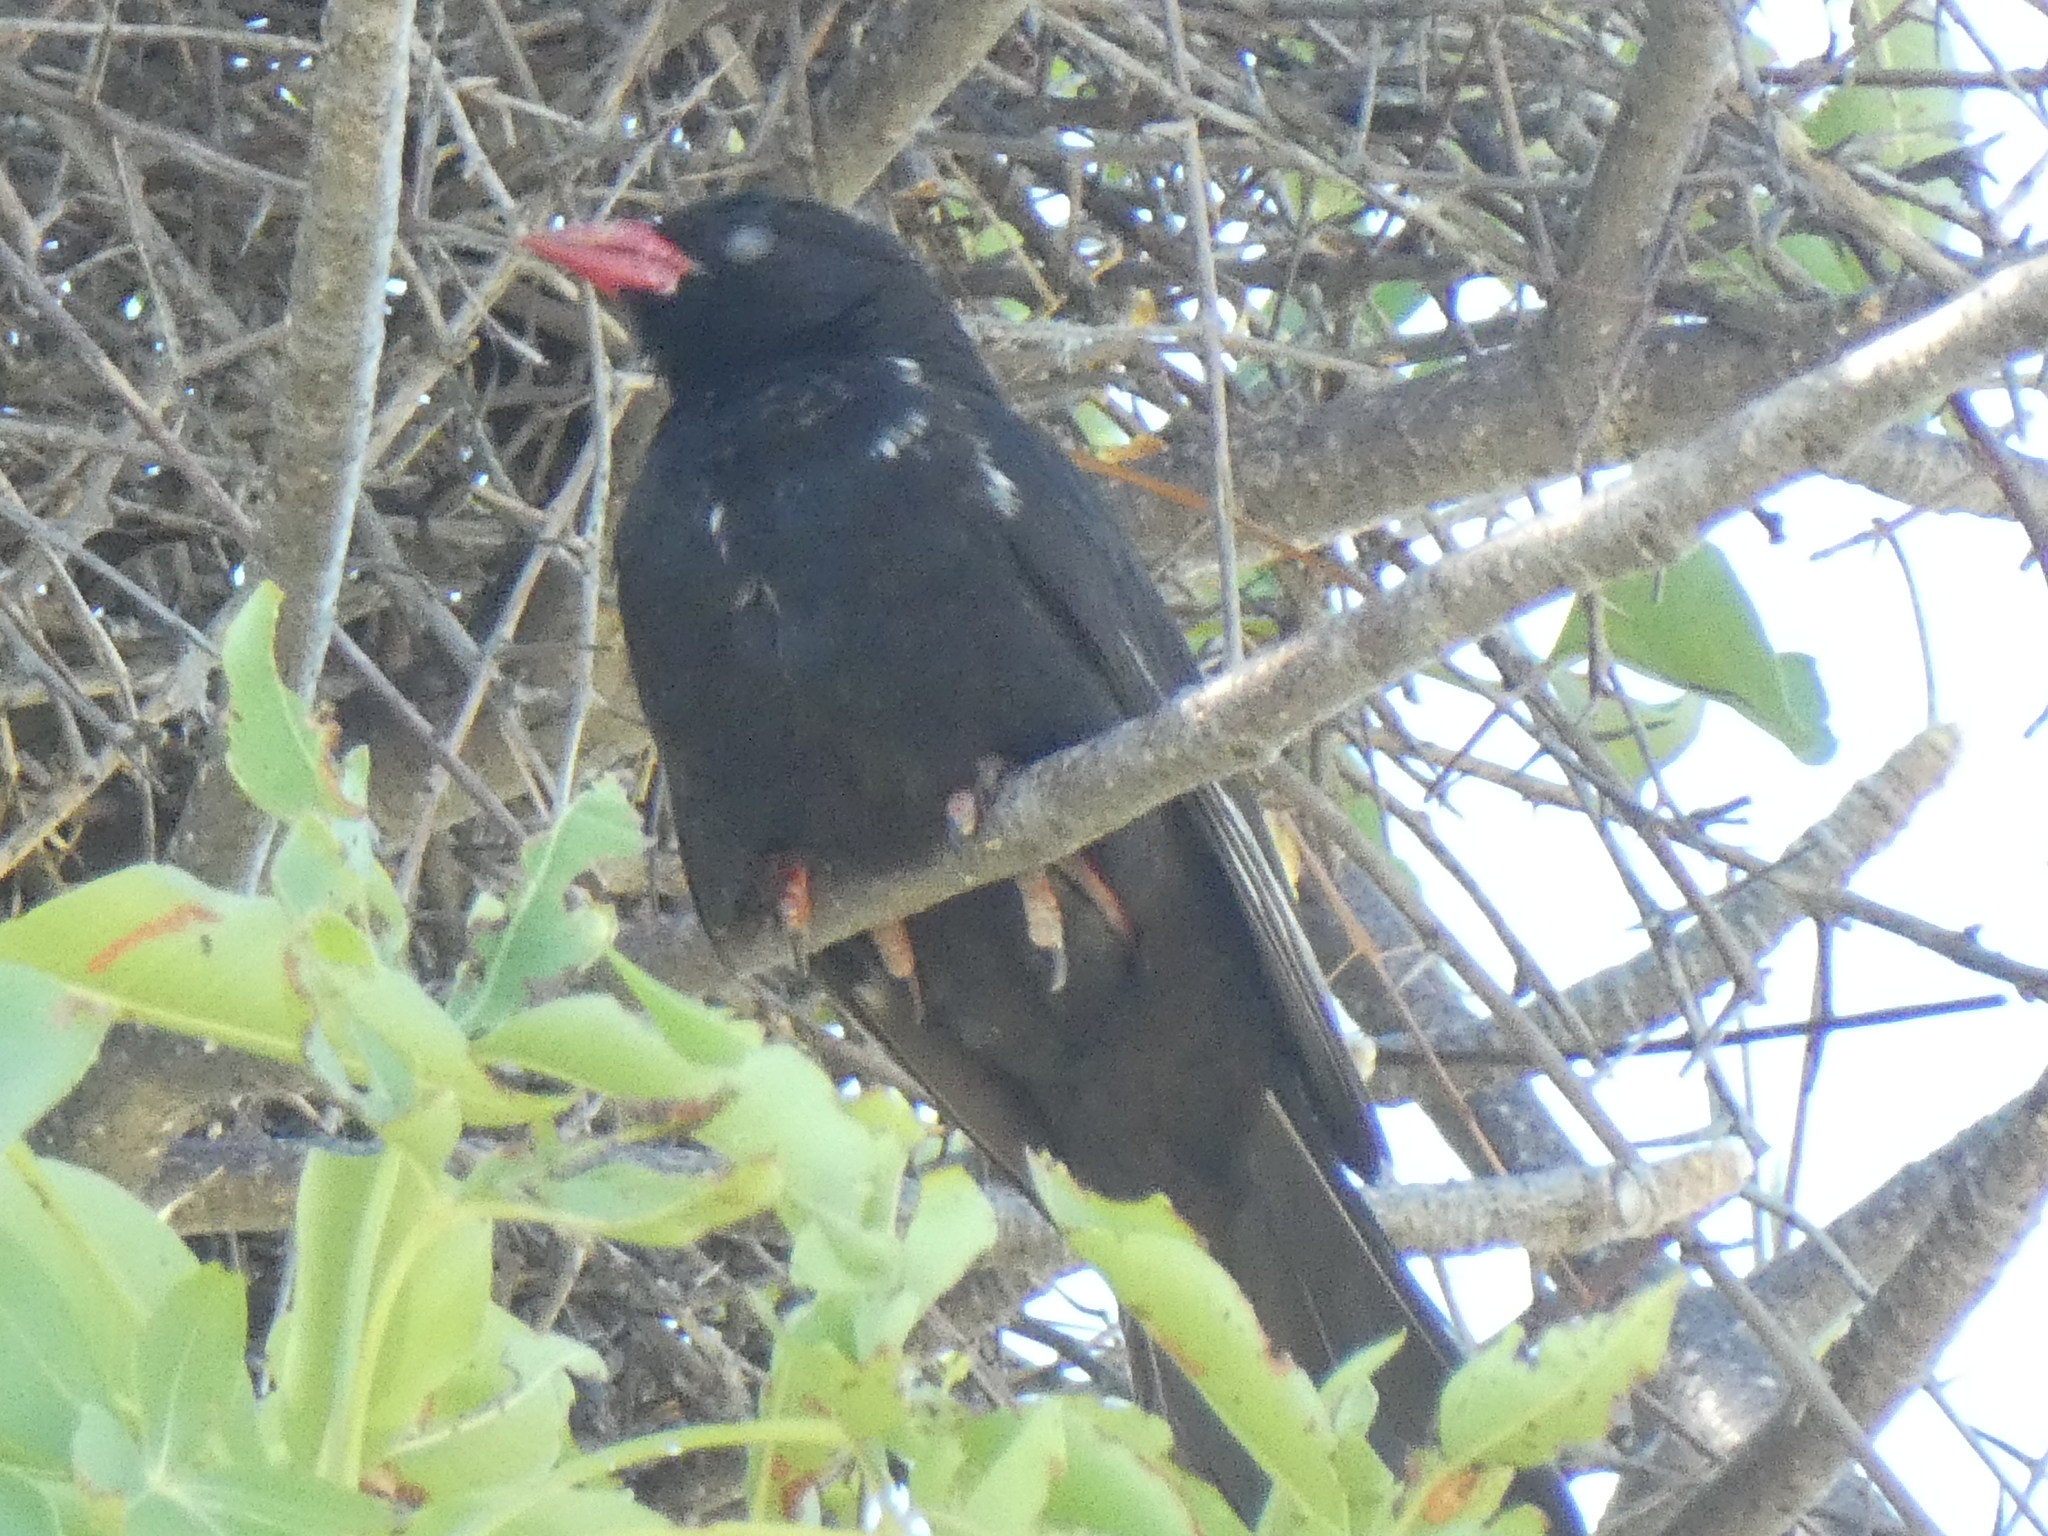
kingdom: Animalia
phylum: Chordata
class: Aves
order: Passeriformes
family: Ploceidae
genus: Bubalornis
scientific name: Bubalornis niger
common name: Red-billed buffalo weaver
